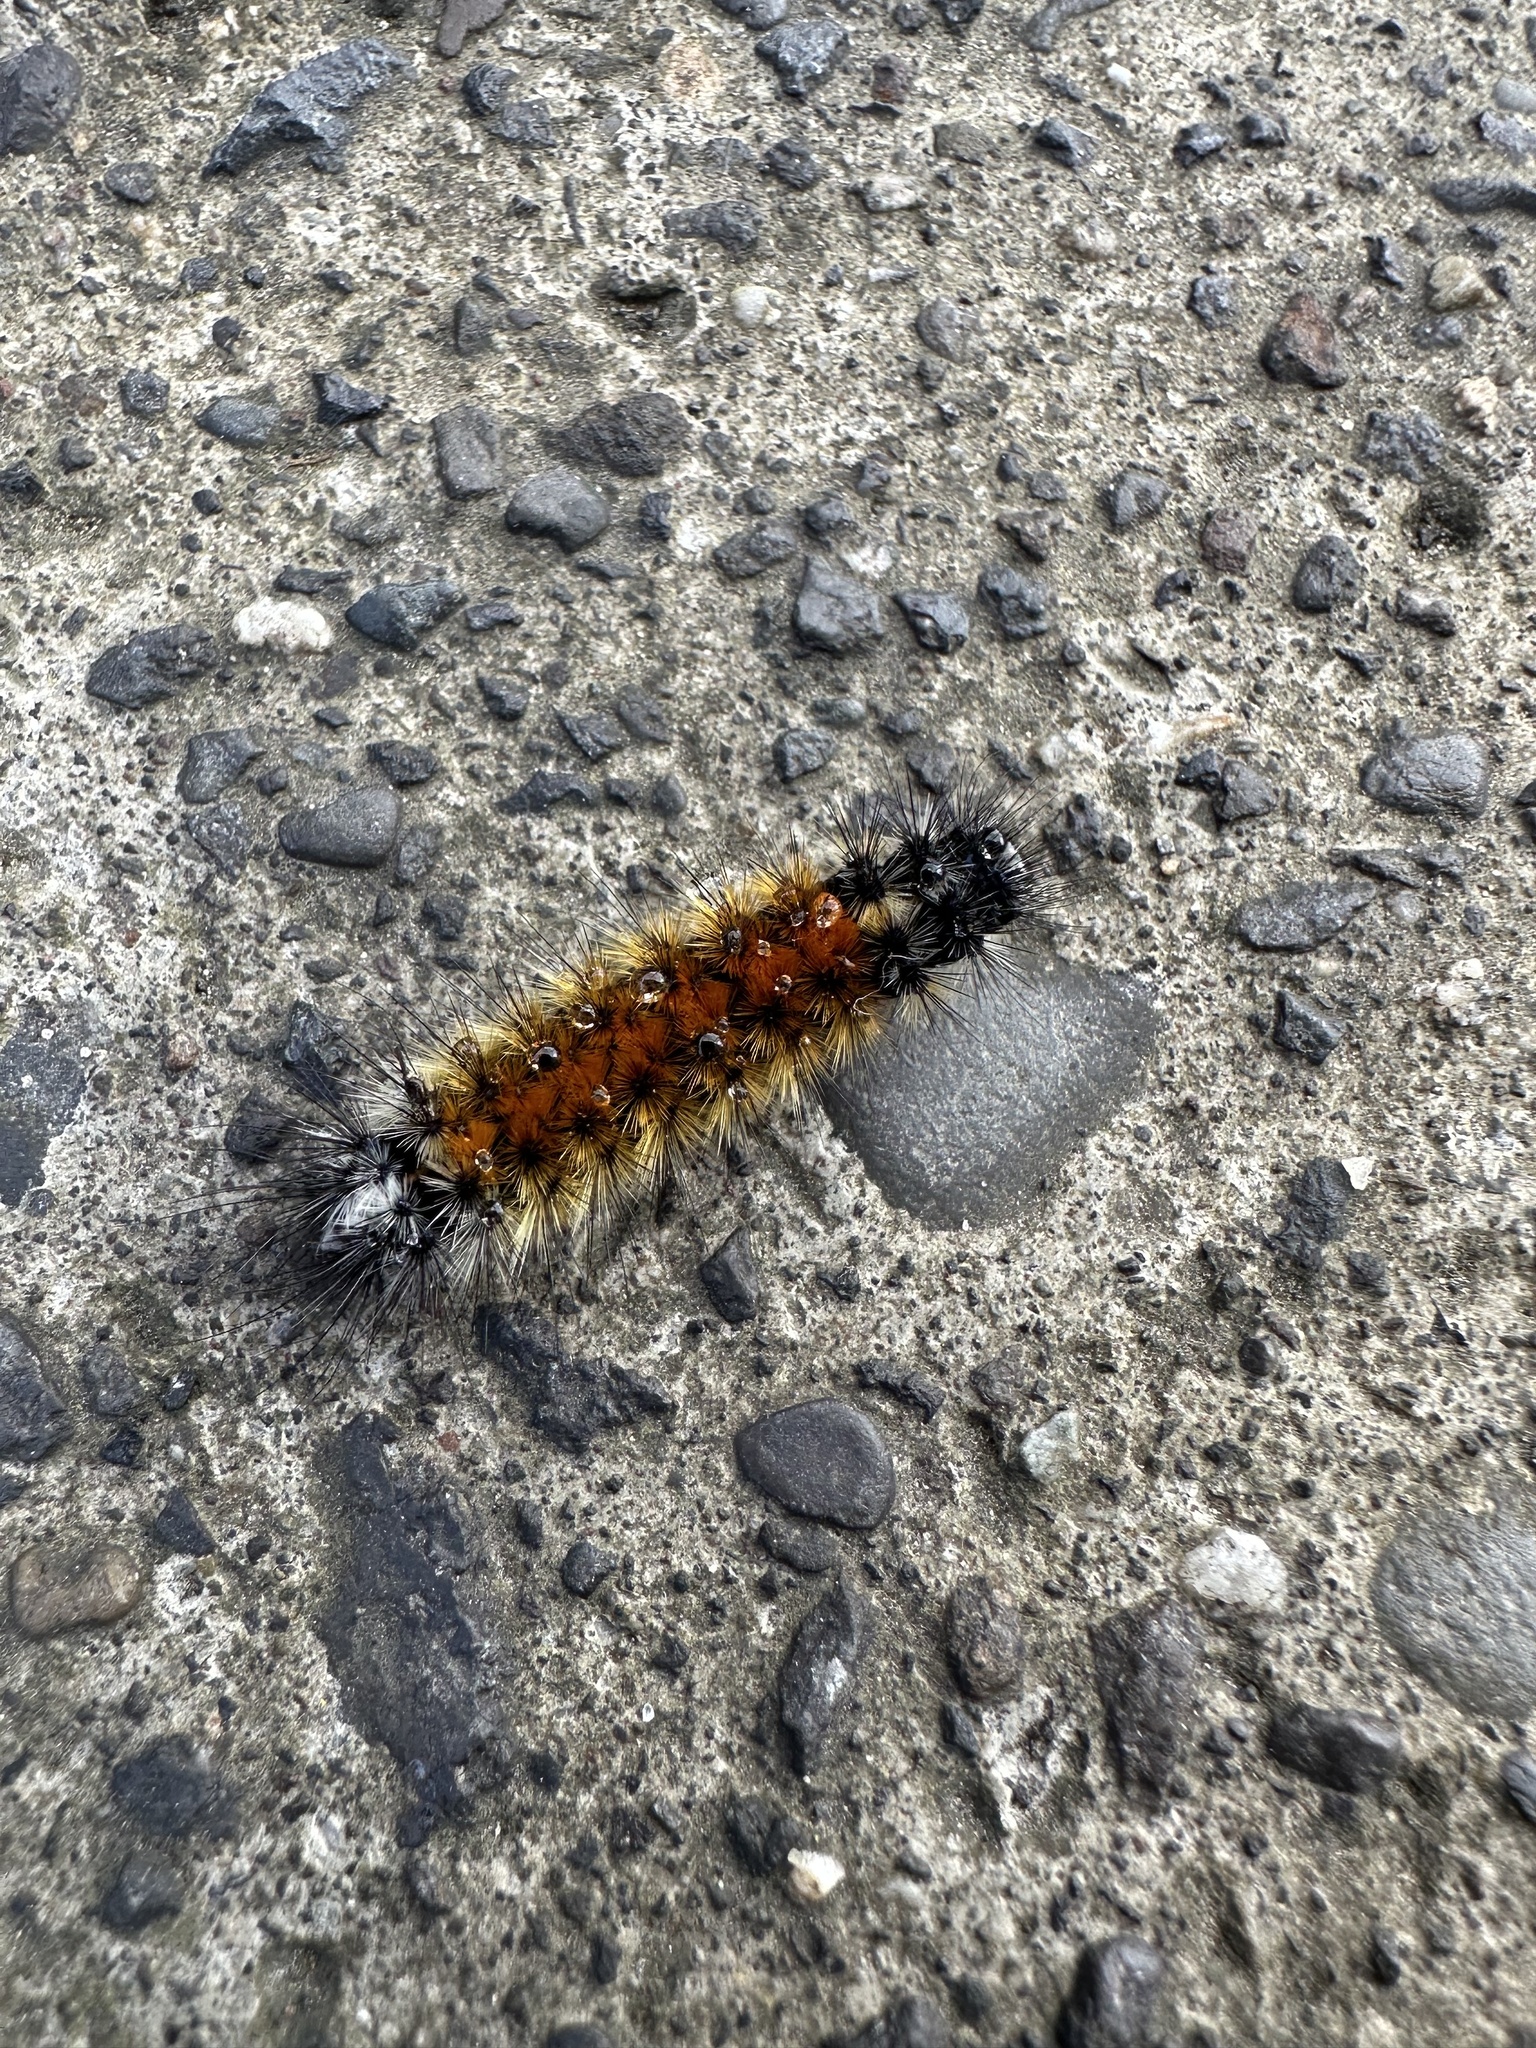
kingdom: Animalia
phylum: Arthropoda
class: Insecta
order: Lepidoptera
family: Erebidae
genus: Chilesia
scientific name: Chilesia
